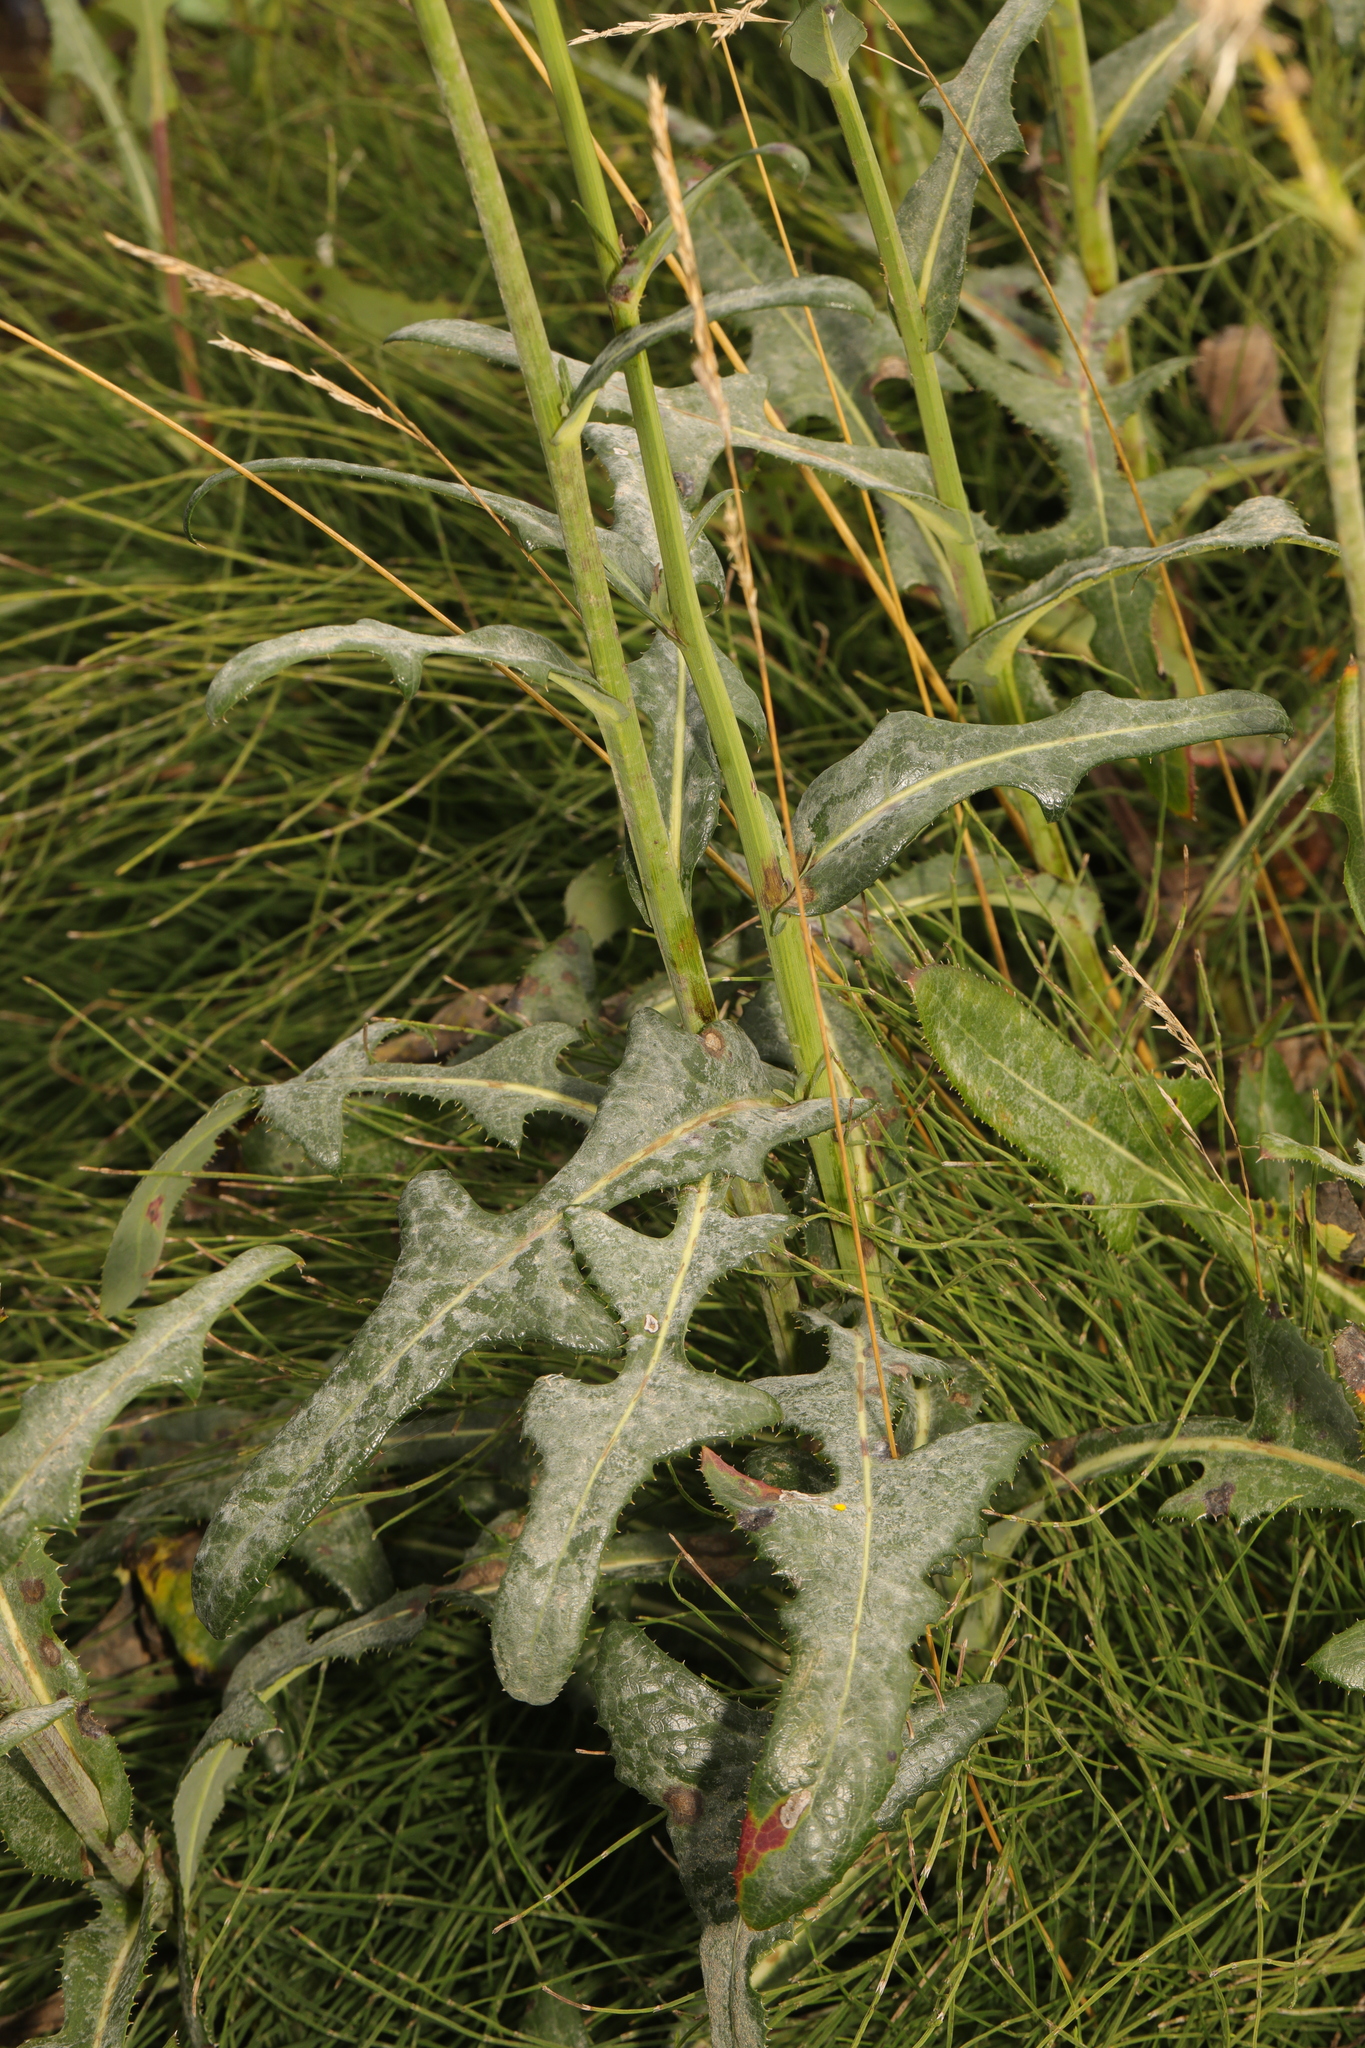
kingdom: Plantae
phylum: Tracheophyta
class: Magnoliopsida
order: Asterales
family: Asteraceae
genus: Sonchus
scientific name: Sonchus arvensis
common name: Perennial sow-thistle
